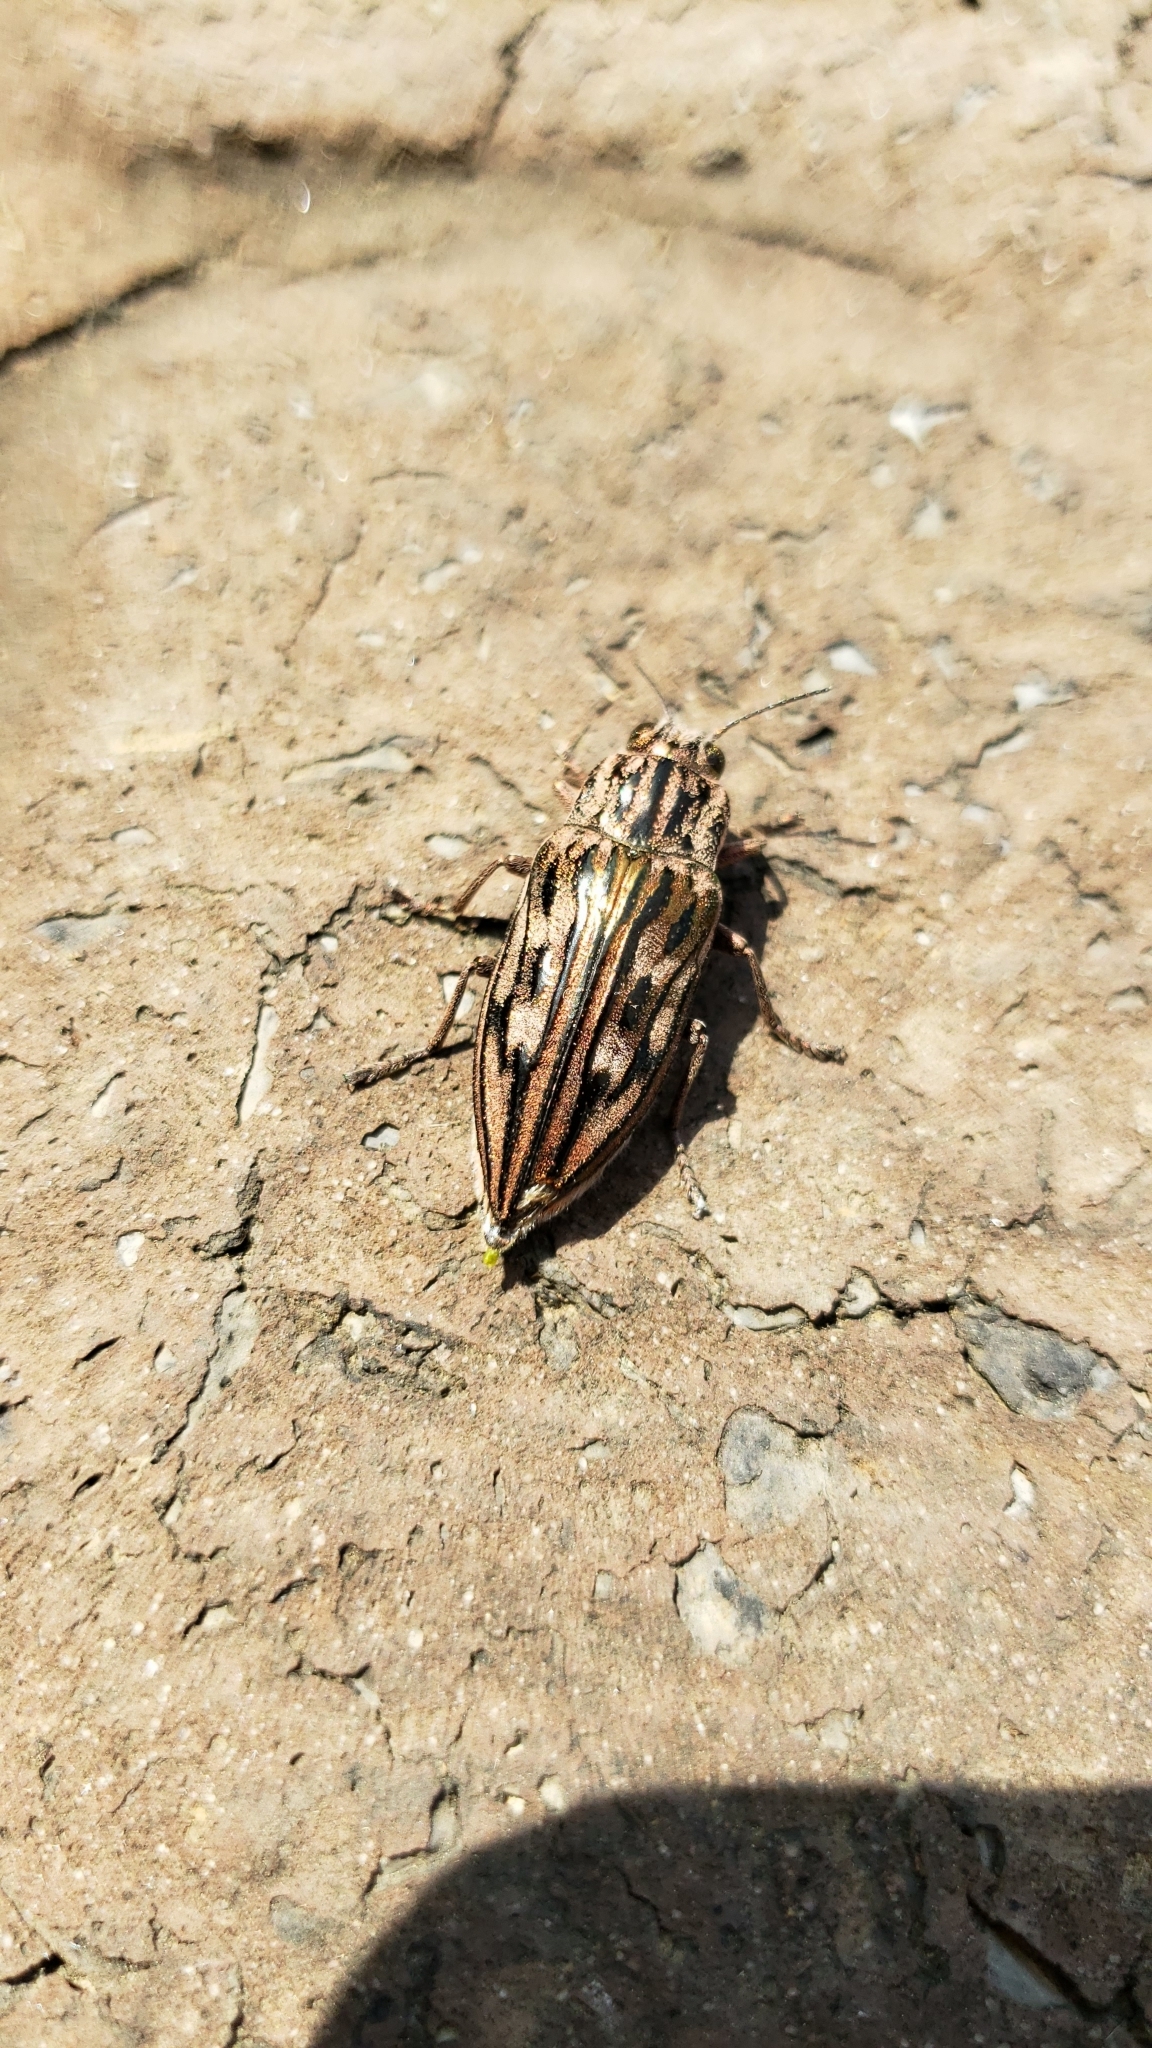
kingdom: Animalia
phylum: Arthropoda
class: Insecta
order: Coleoptera
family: Buprestidae
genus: Chalcophora
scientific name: Chalcophora fortis
